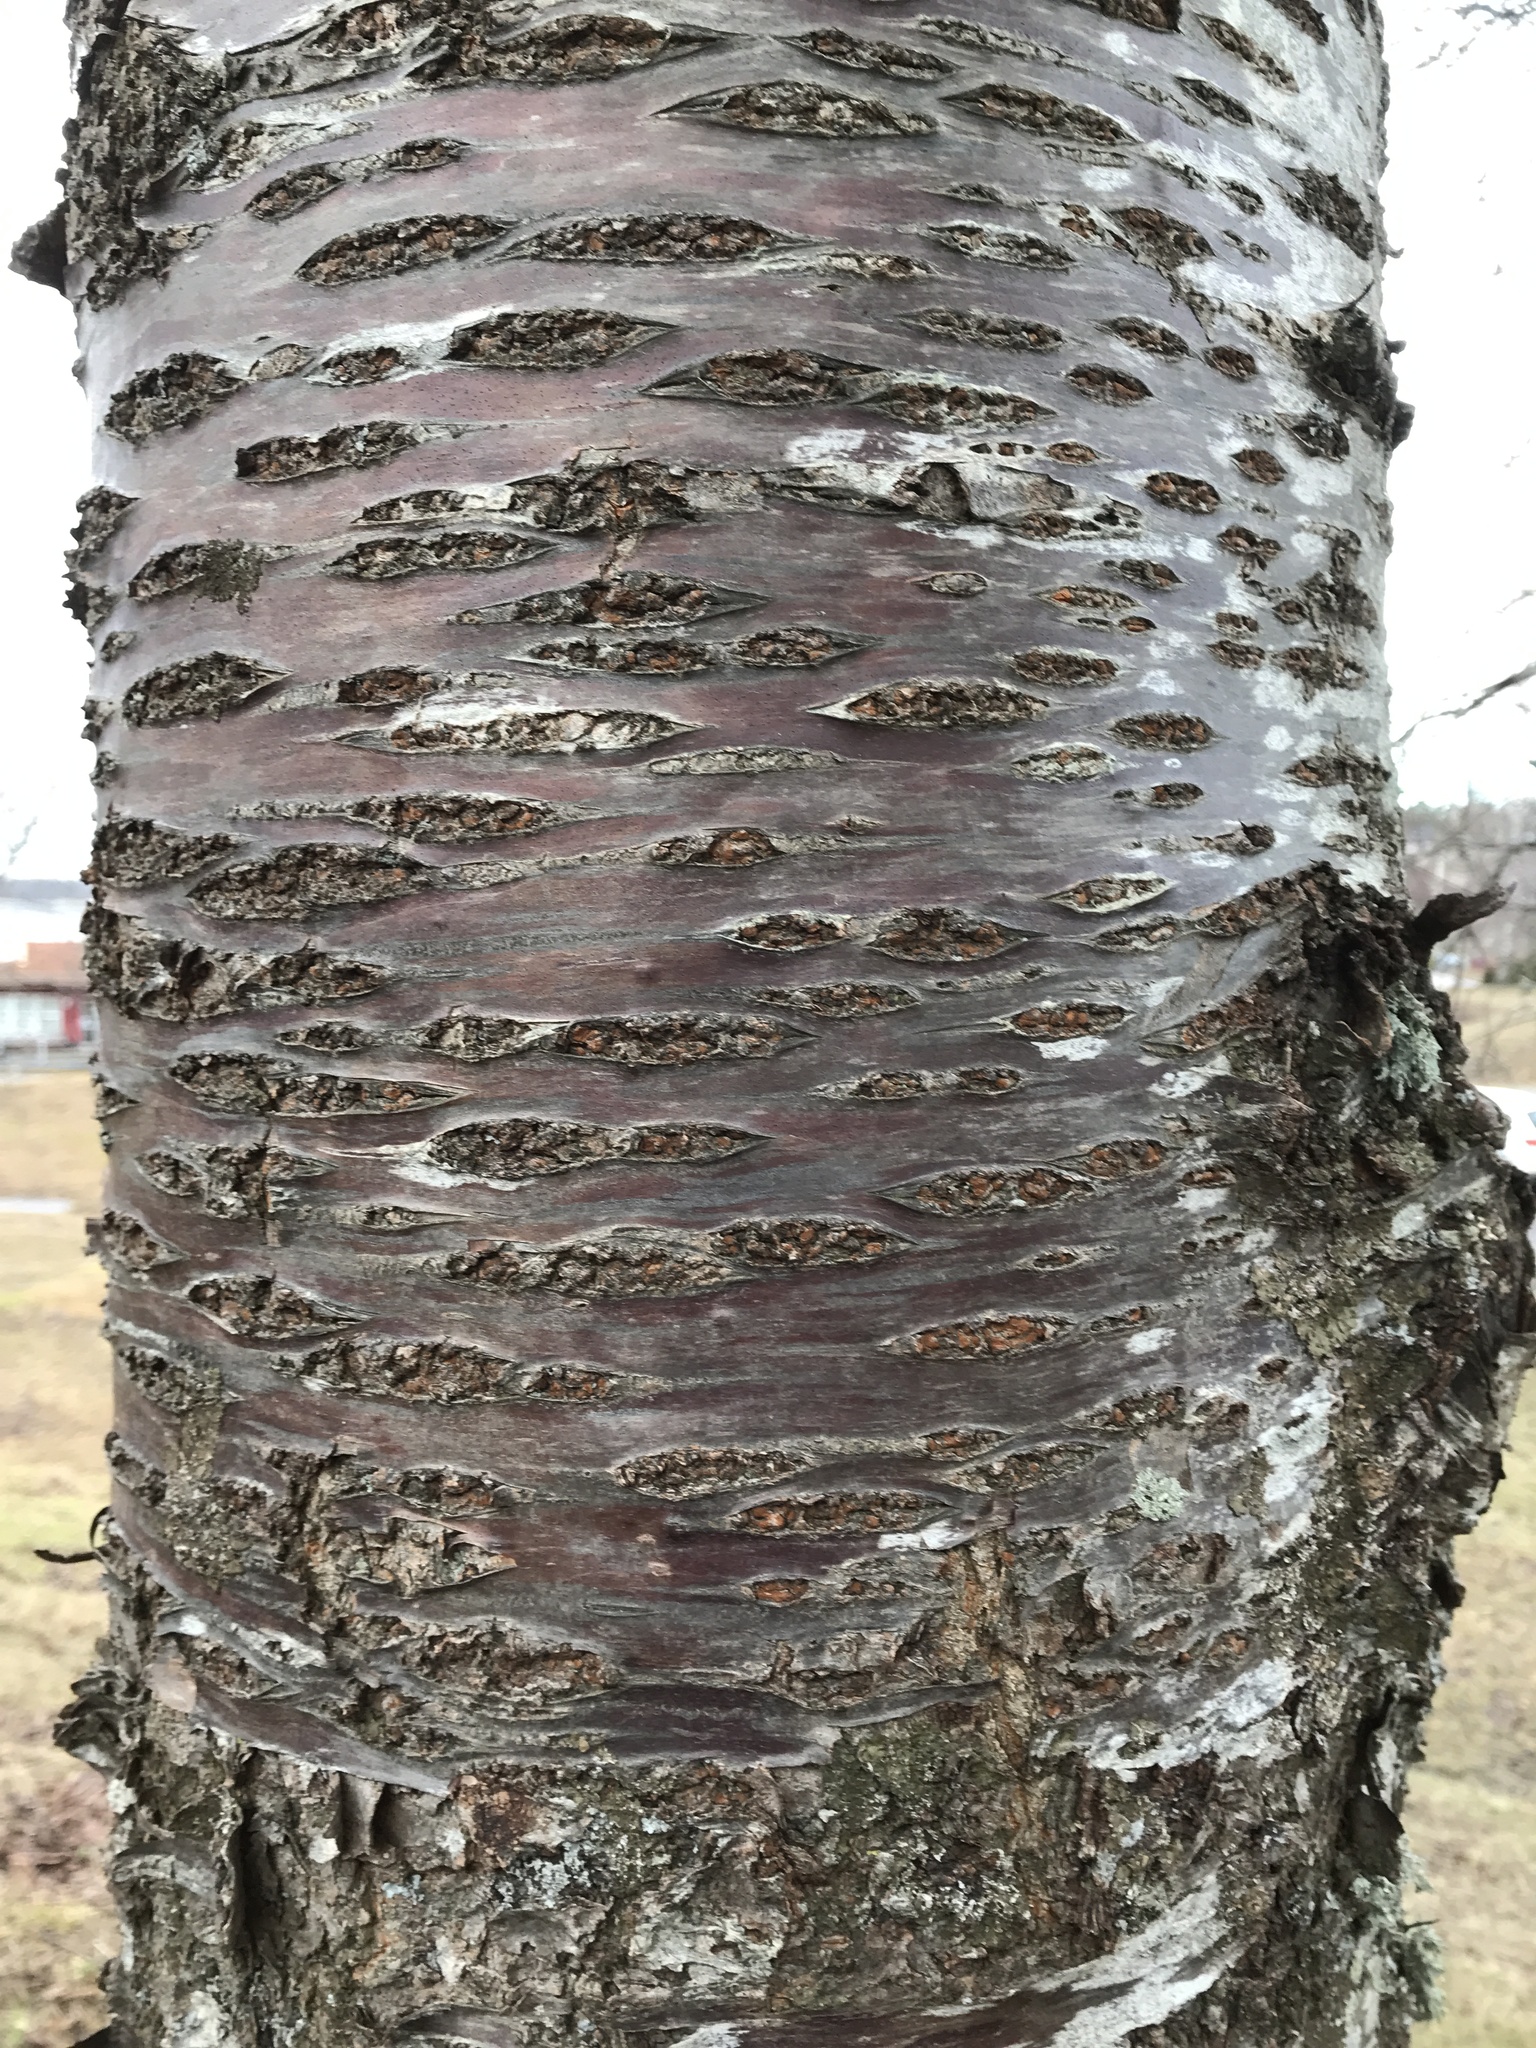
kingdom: Plantae
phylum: Tracheophyta
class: Magnoliopsida
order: Rosales
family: Rosaceae
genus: Prunus
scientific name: Prunus avium
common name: Sweet cherry
